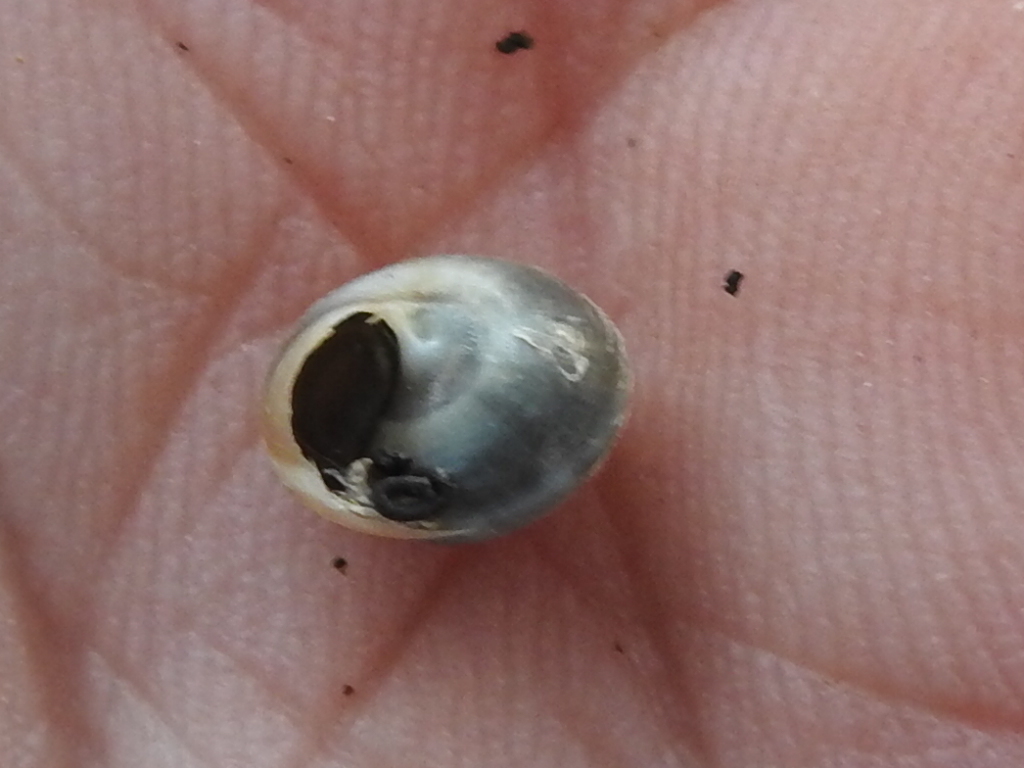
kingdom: Animalia
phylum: Mollusca
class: Gastropoda
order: Cycloneritida
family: Helicinidae
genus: Helicina
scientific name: Helicina orbiculata
